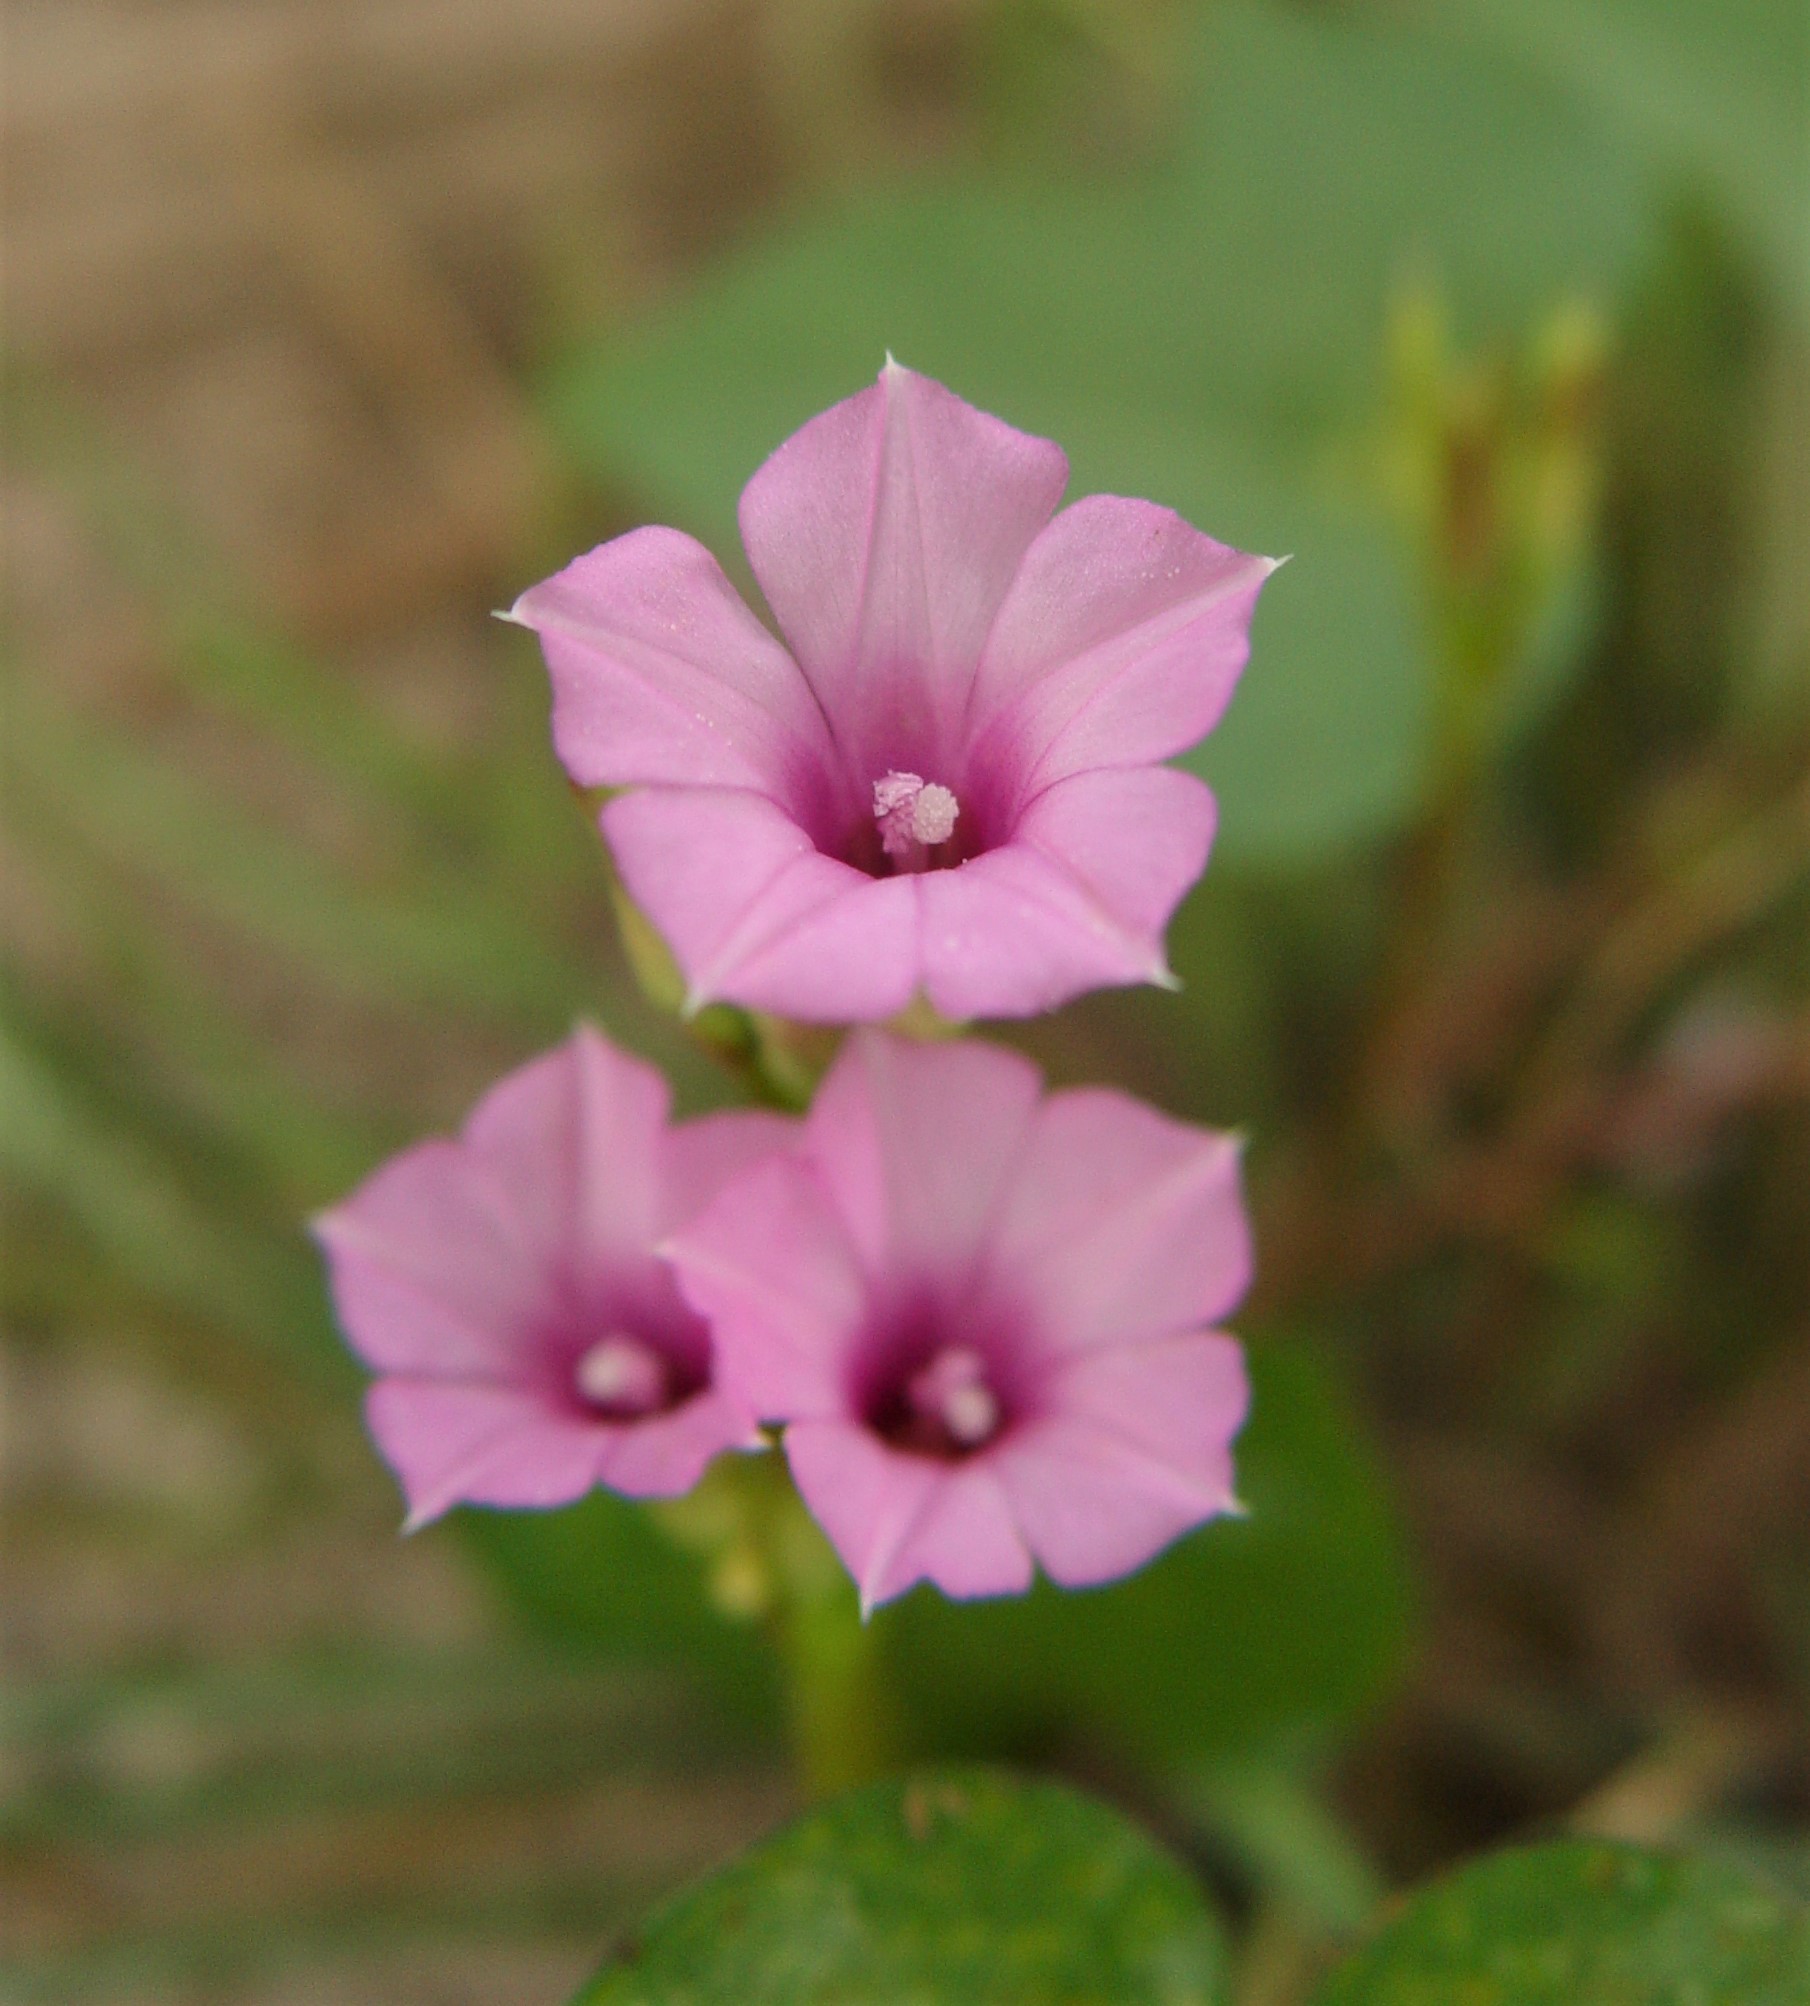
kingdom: Plantae
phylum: Tracheophyta
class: Magnoliopsida
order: Solanales
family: Convolvulaceae
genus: Ipomoea
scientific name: Ipomoea triloba
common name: Little-bell
